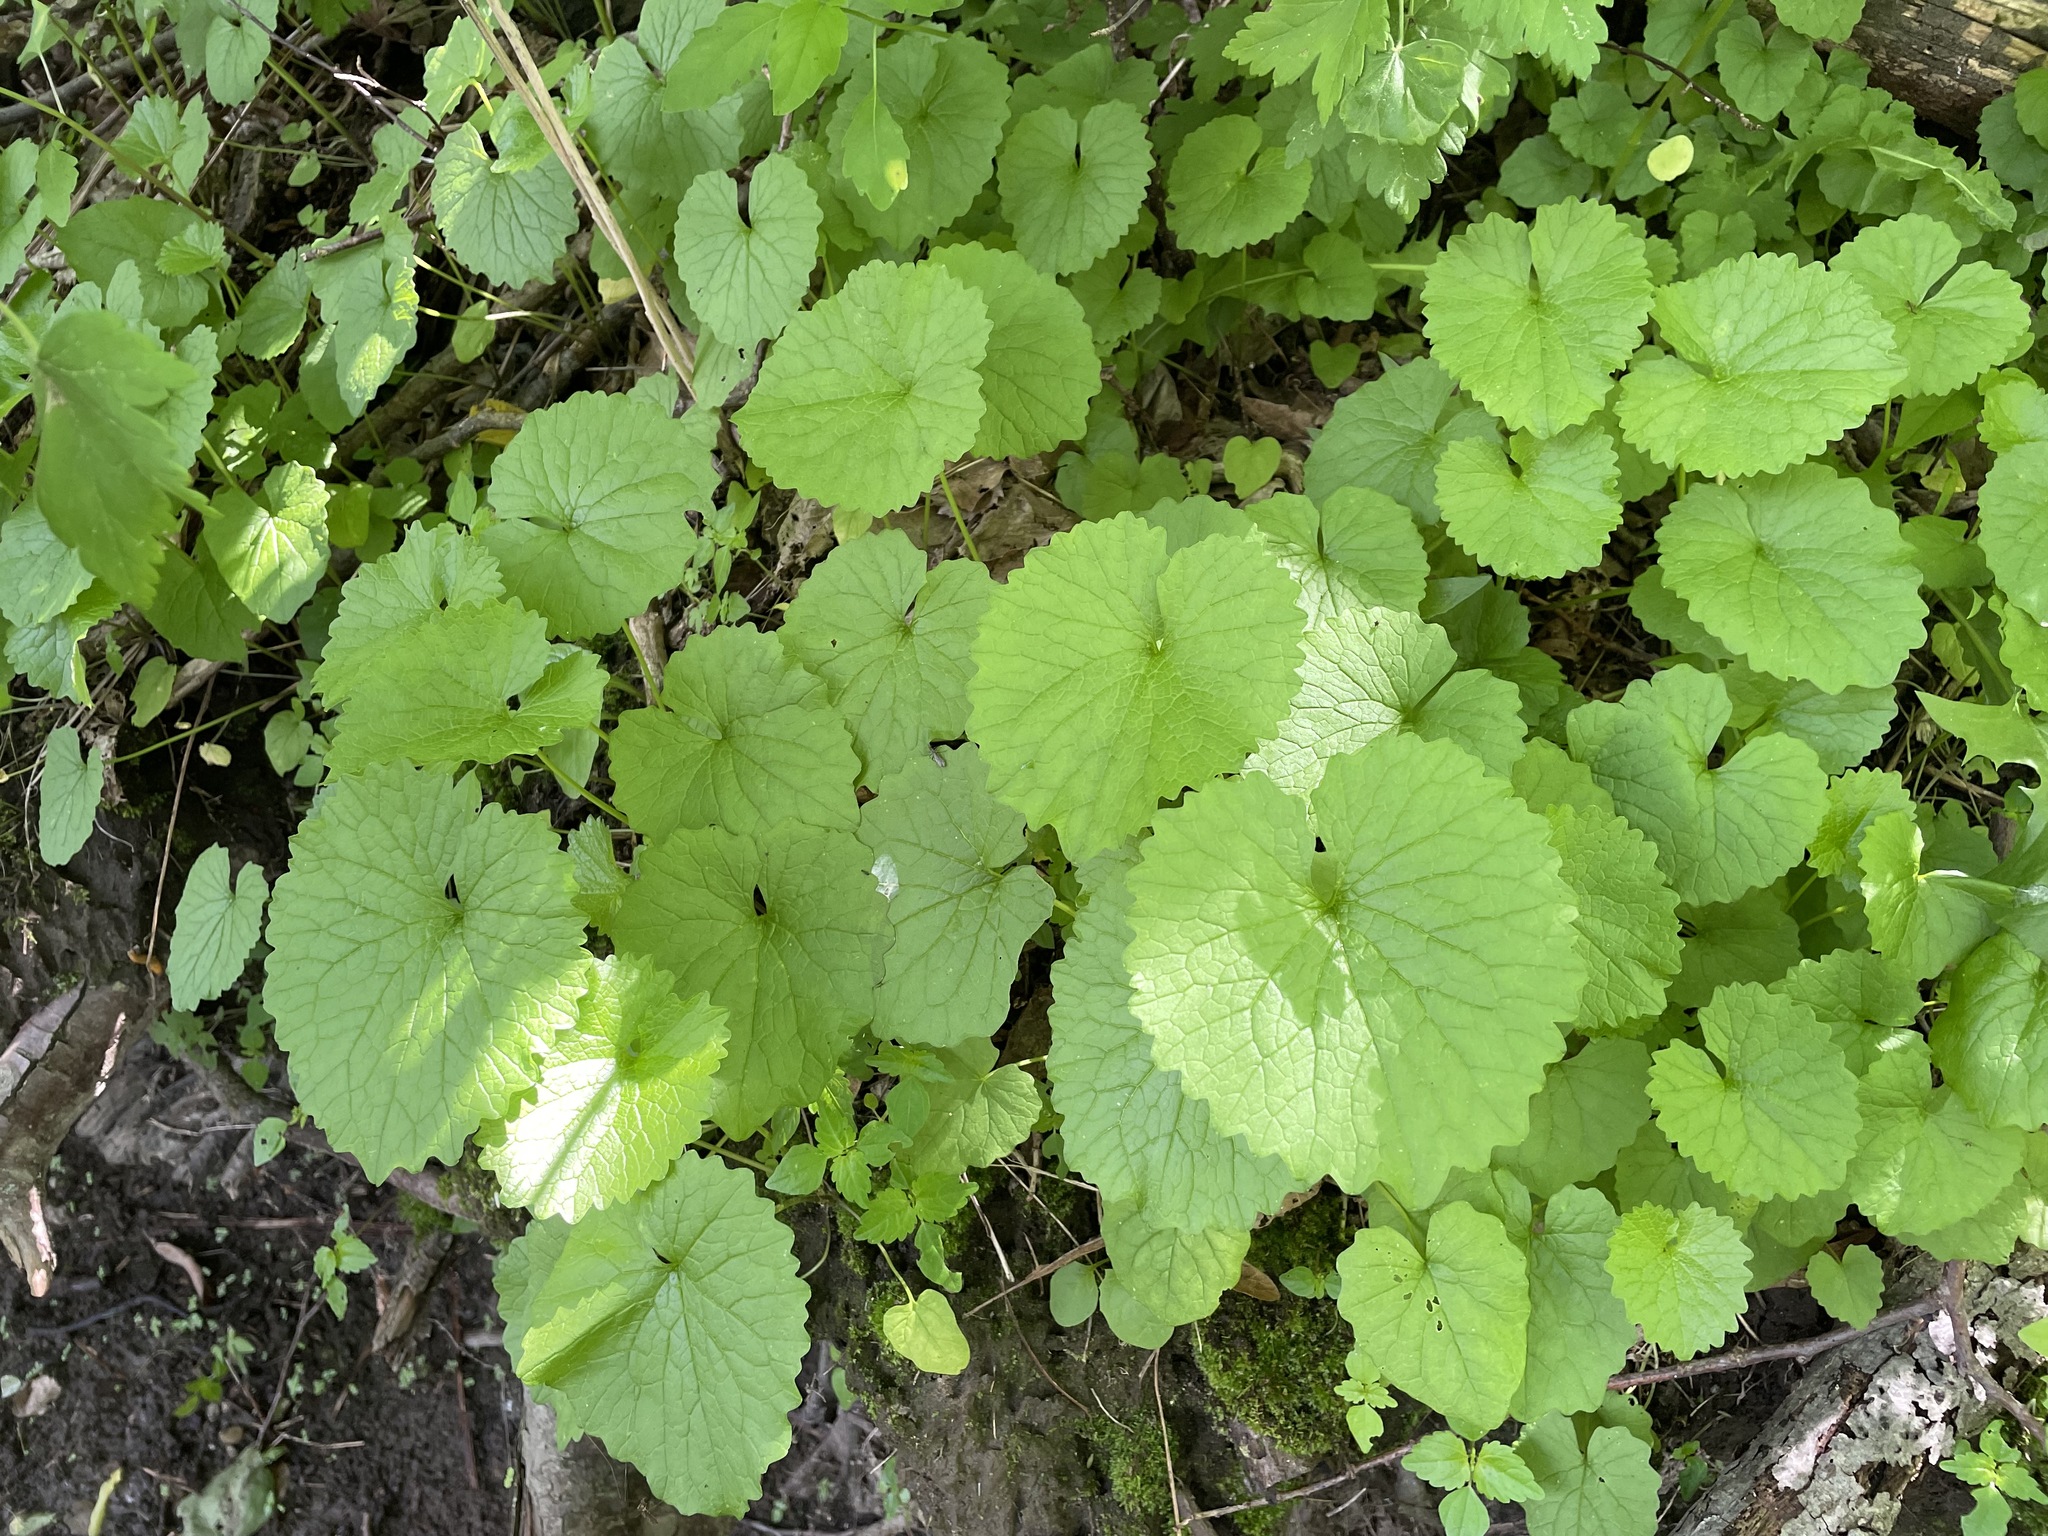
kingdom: Plantae
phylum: Tracheophyta
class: Magnoliopsida
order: Brassicales
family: Brassicaceae
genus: Alliaria
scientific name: Alliaria petiolata
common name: Garlic mustard
